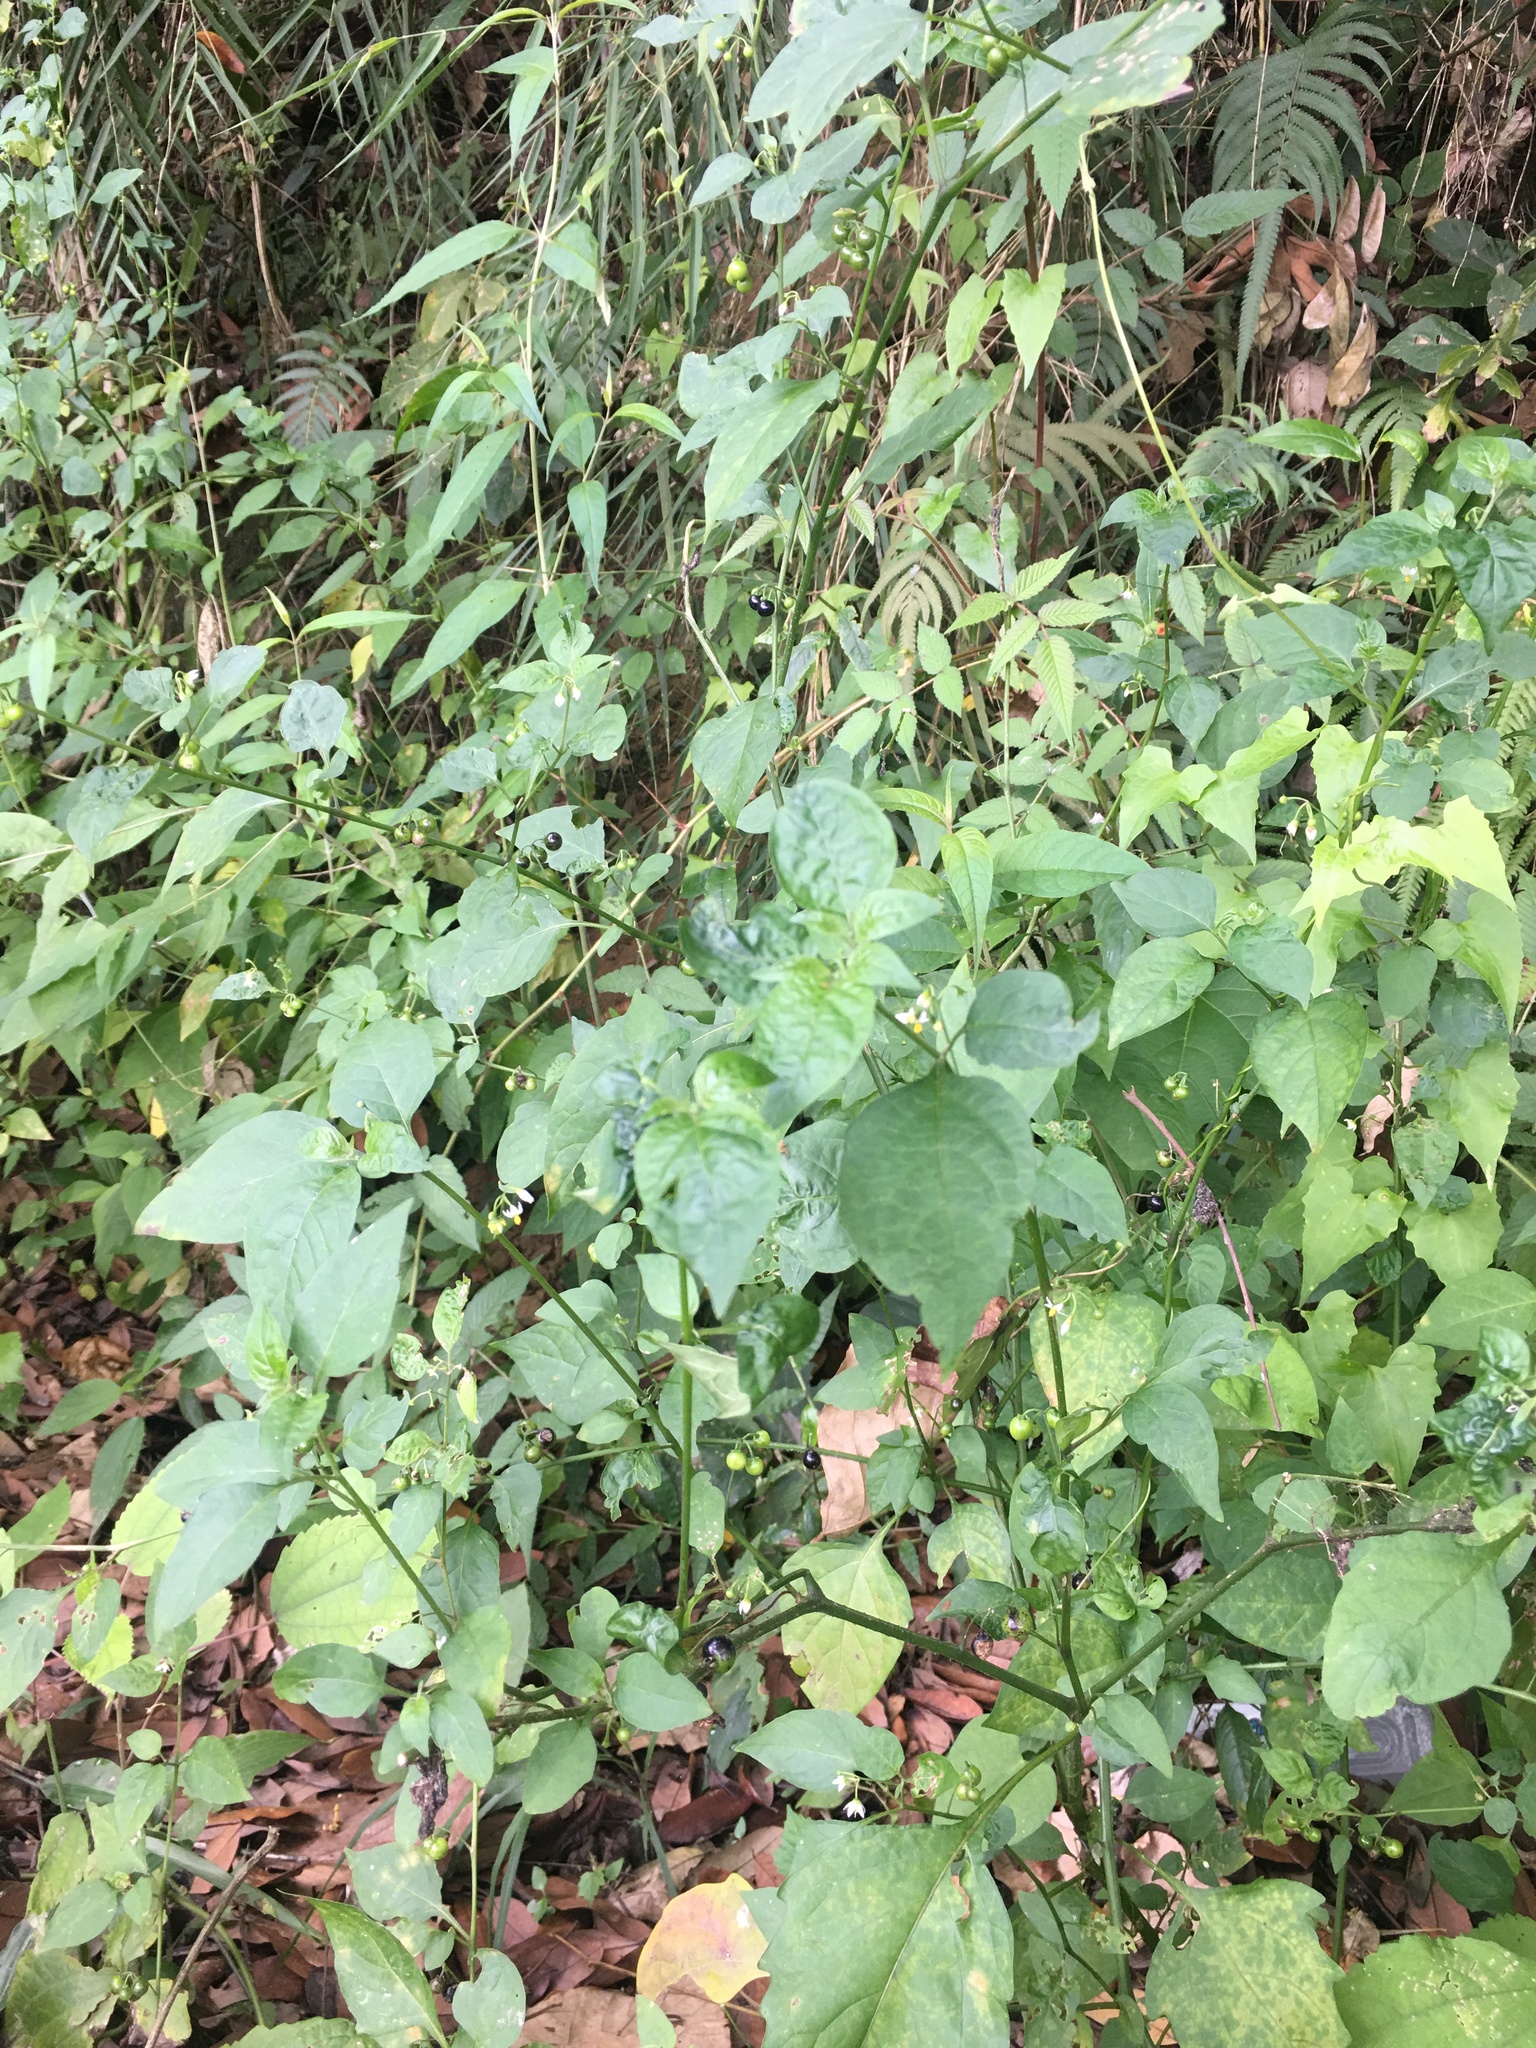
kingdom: Plantae
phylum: Tracheophyta
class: Magnoliopsida
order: Solanales
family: Solanaceae
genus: Solanum
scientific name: Solanum americanum
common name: American black nightshade
